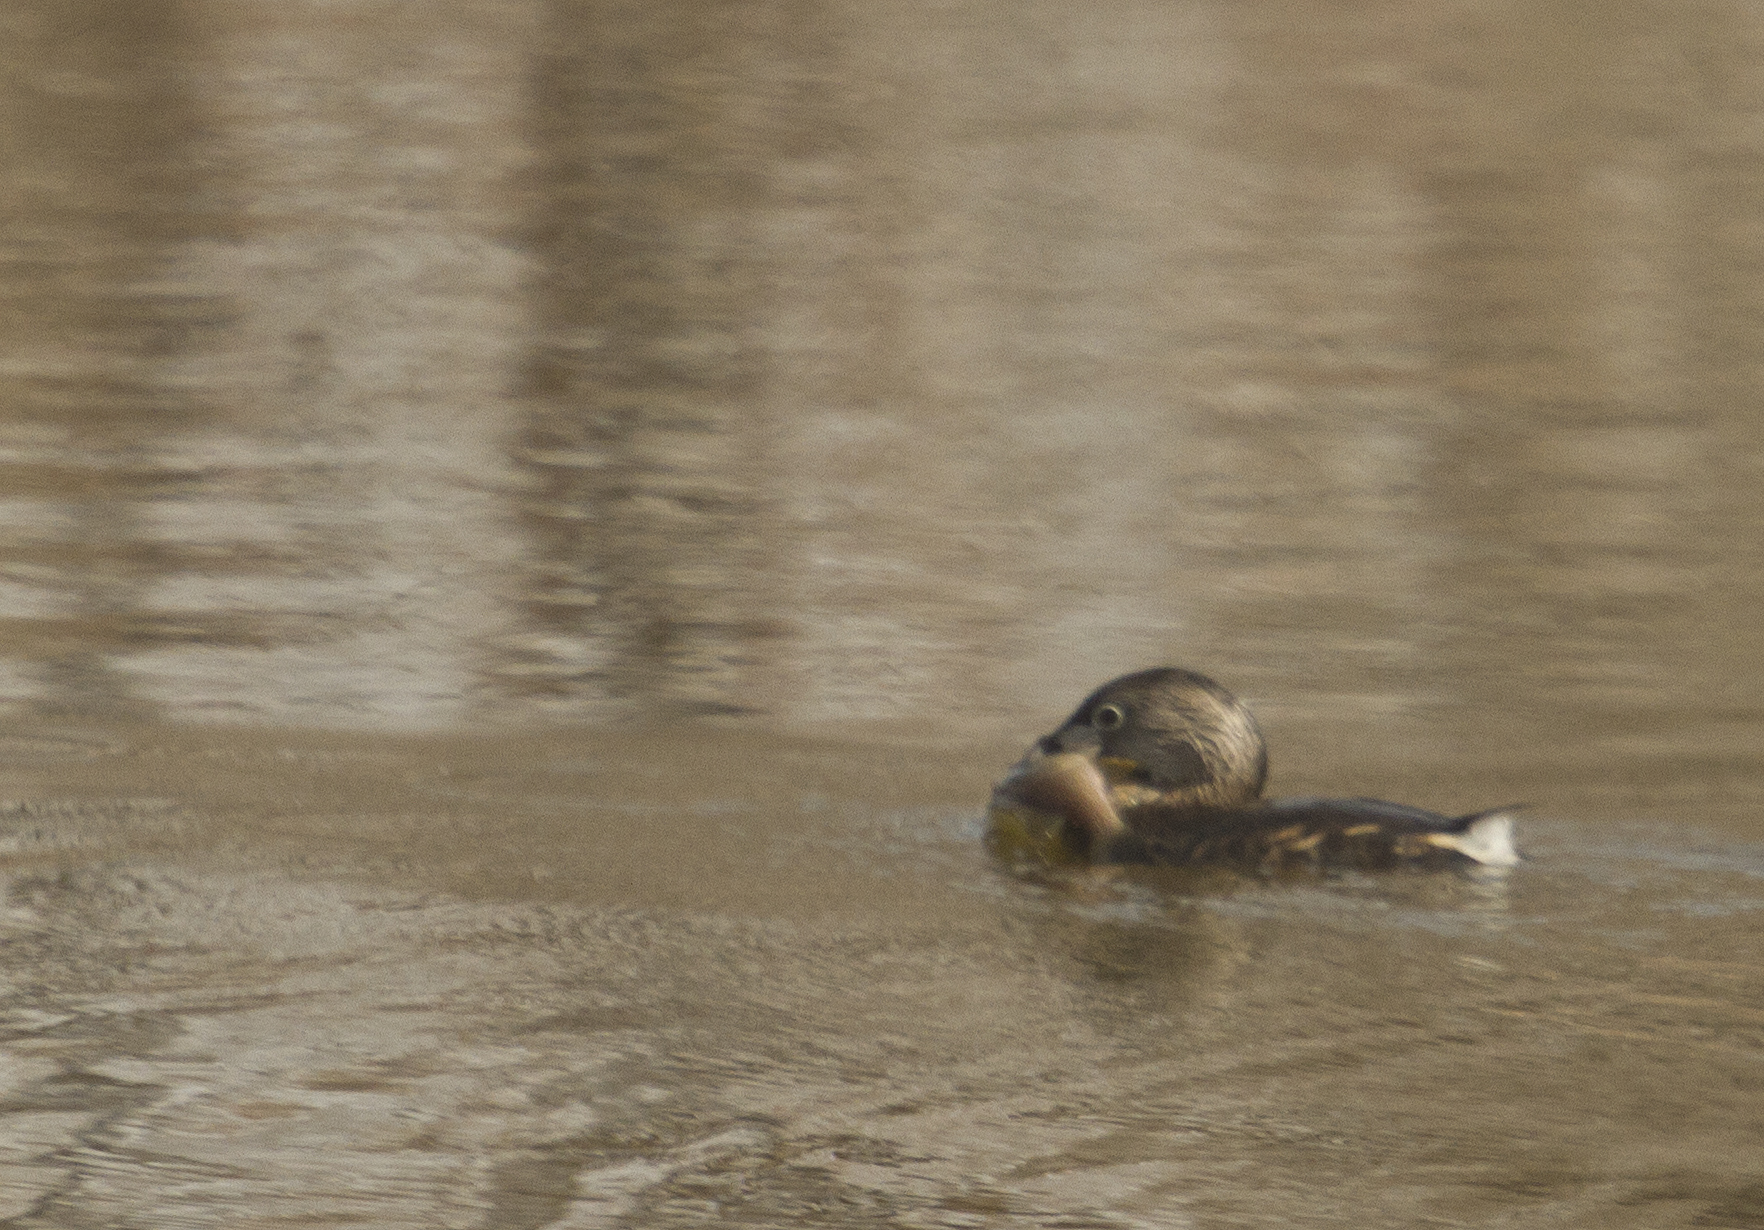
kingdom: Animalia
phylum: Chordata
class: Aves
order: Podicipediformes
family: Podicipedidae
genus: Podilymbus
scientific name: Podilymbus podiceps
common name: Pied-billed grebe
